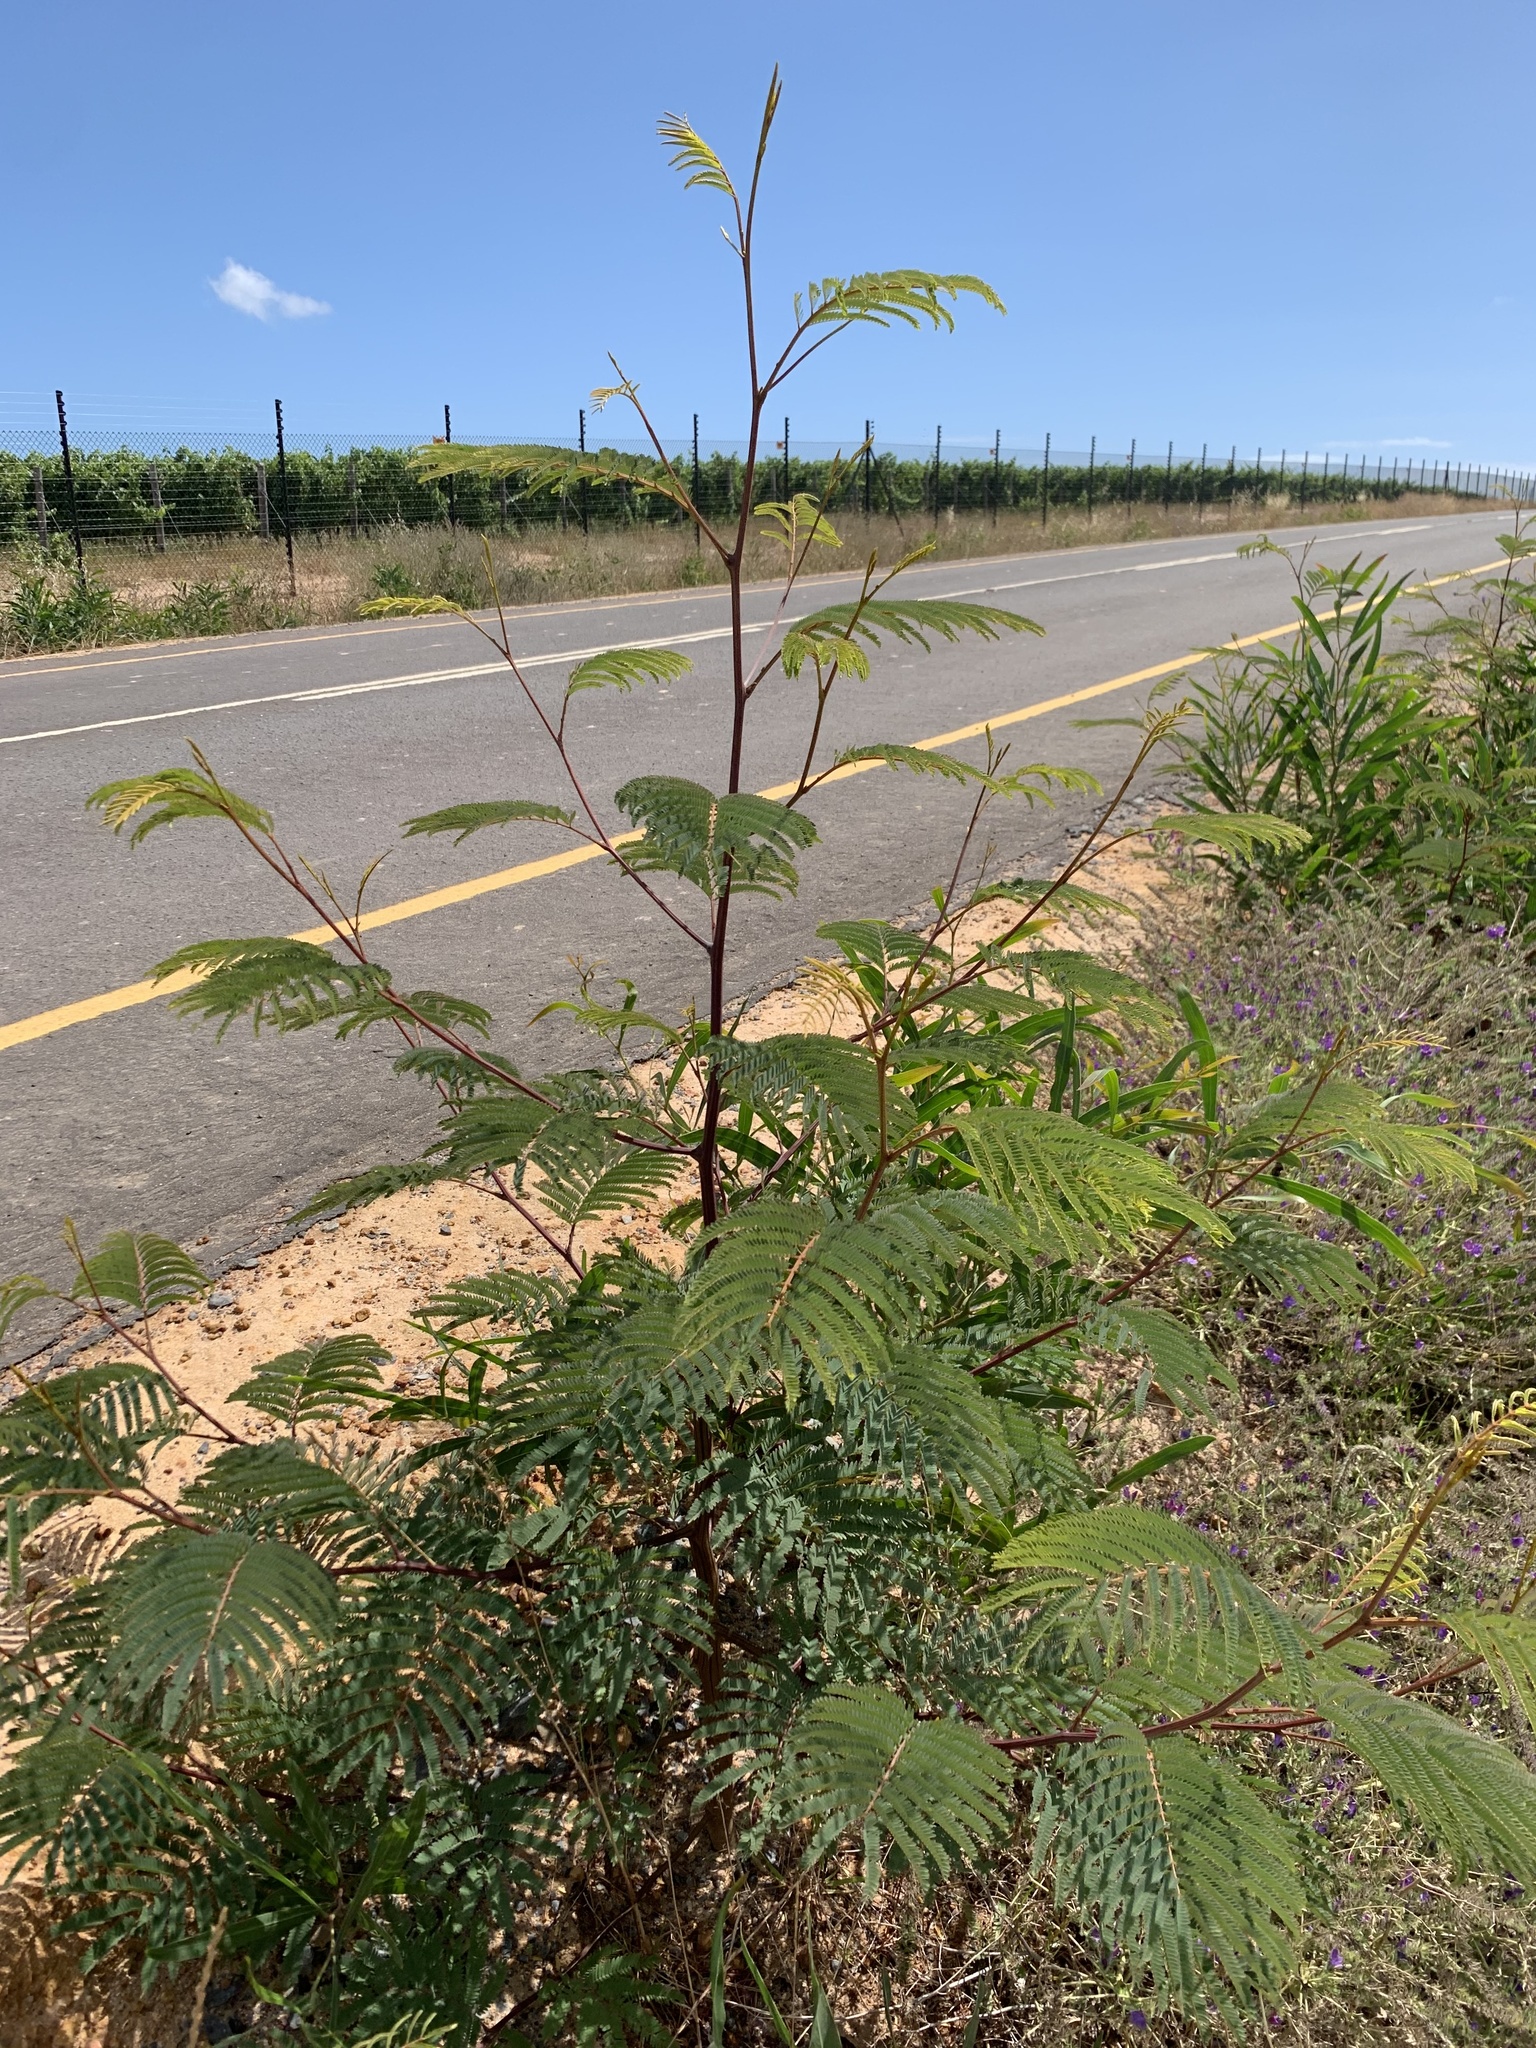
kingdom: Plantae
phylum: Tracheophyta
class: Magnoliopsida
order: Fabales
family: Fabaceae
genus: Paraserianthes
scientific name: Paraserianthes lophantha
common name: Plume albizia
